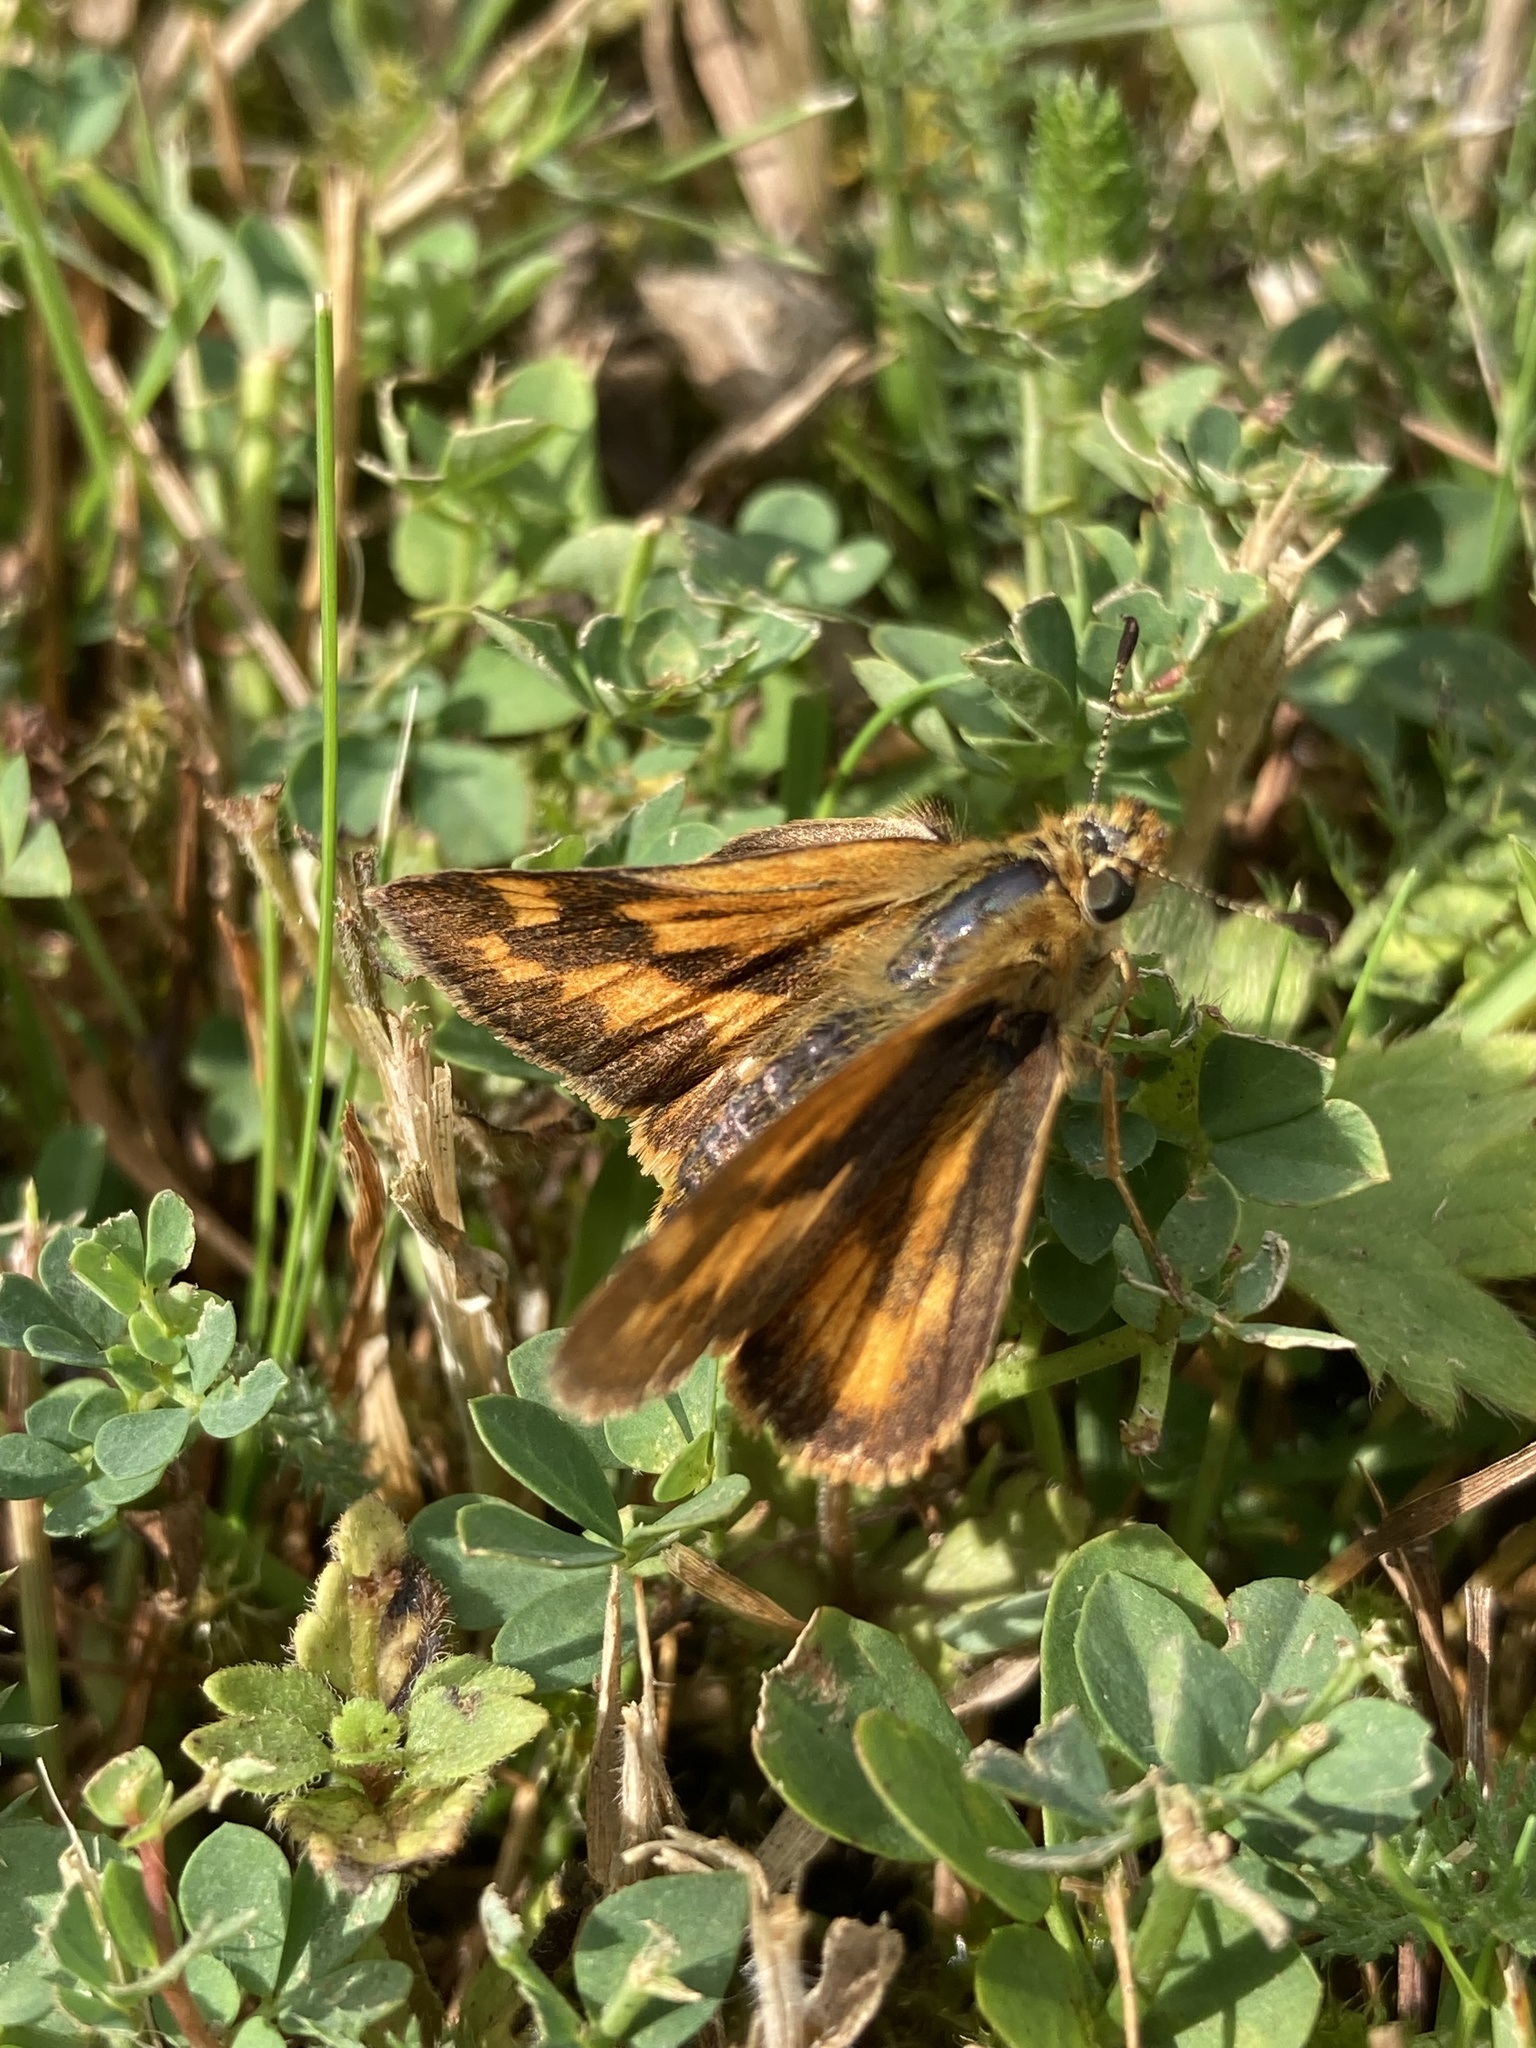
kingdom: Animalia
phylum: Arthropoda
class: Insecta
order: Lepidoptera
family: Hesperiidae
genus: Ochlodes
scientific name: Ochlodes sylvanoides
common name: Woodland skipper
